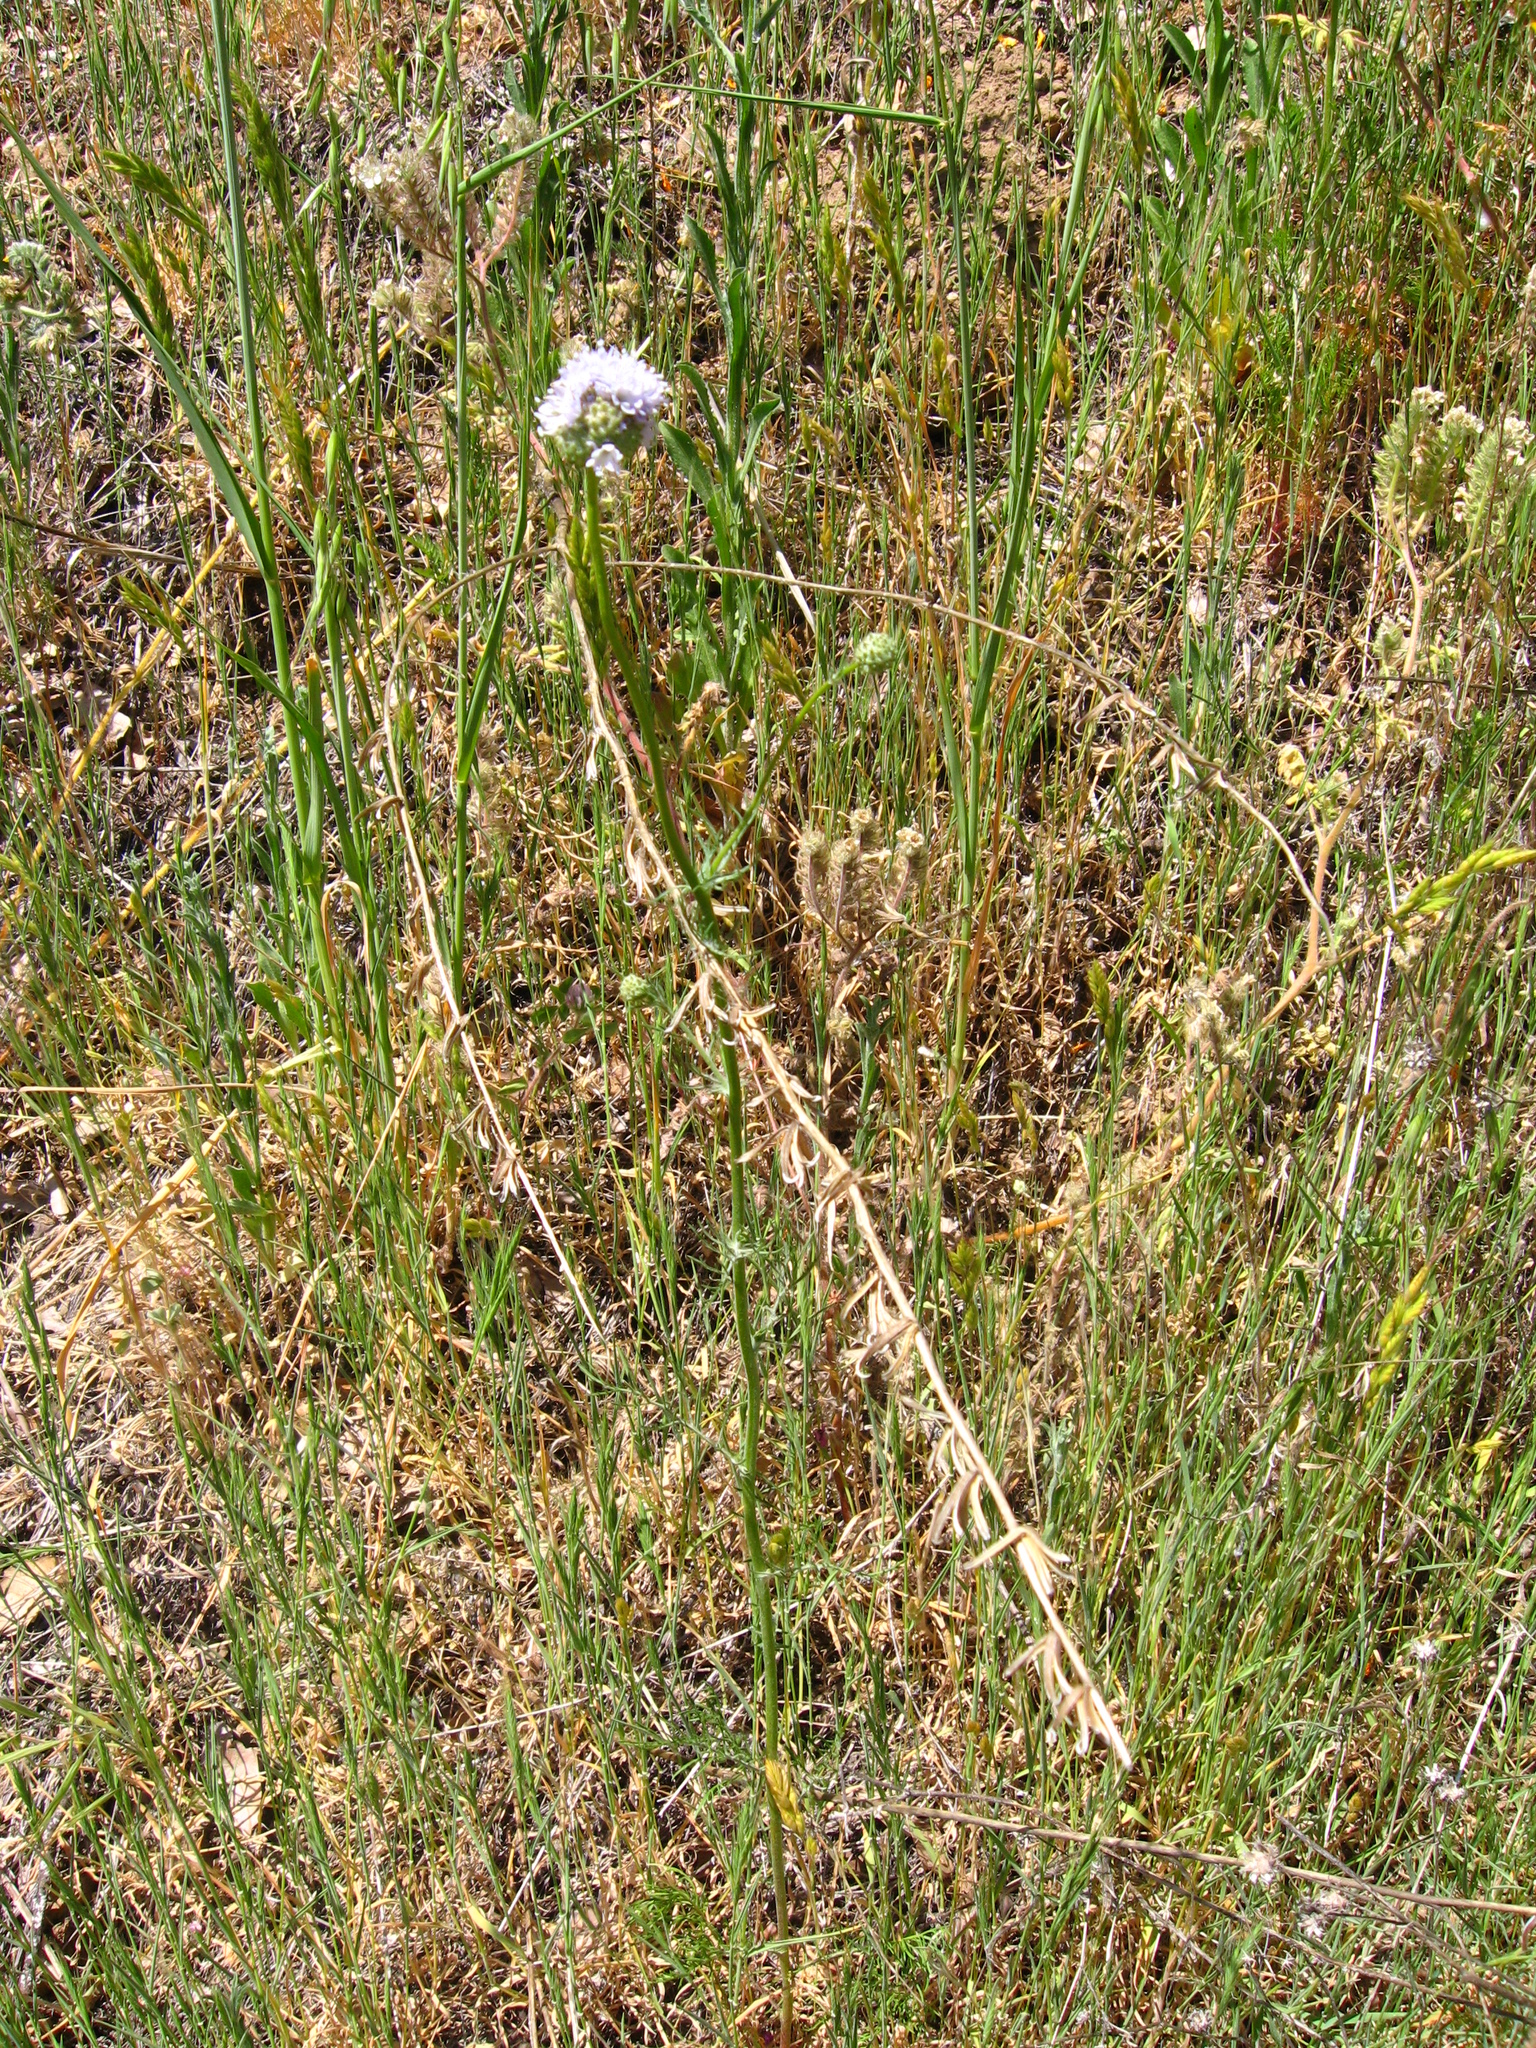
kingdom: Plantae
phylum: Tracheophyta
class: Magnoliopsida
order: Ericales
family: Polemoniaceae
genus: Gilia
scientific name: Gilia capitata
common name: Bluehead gilia
